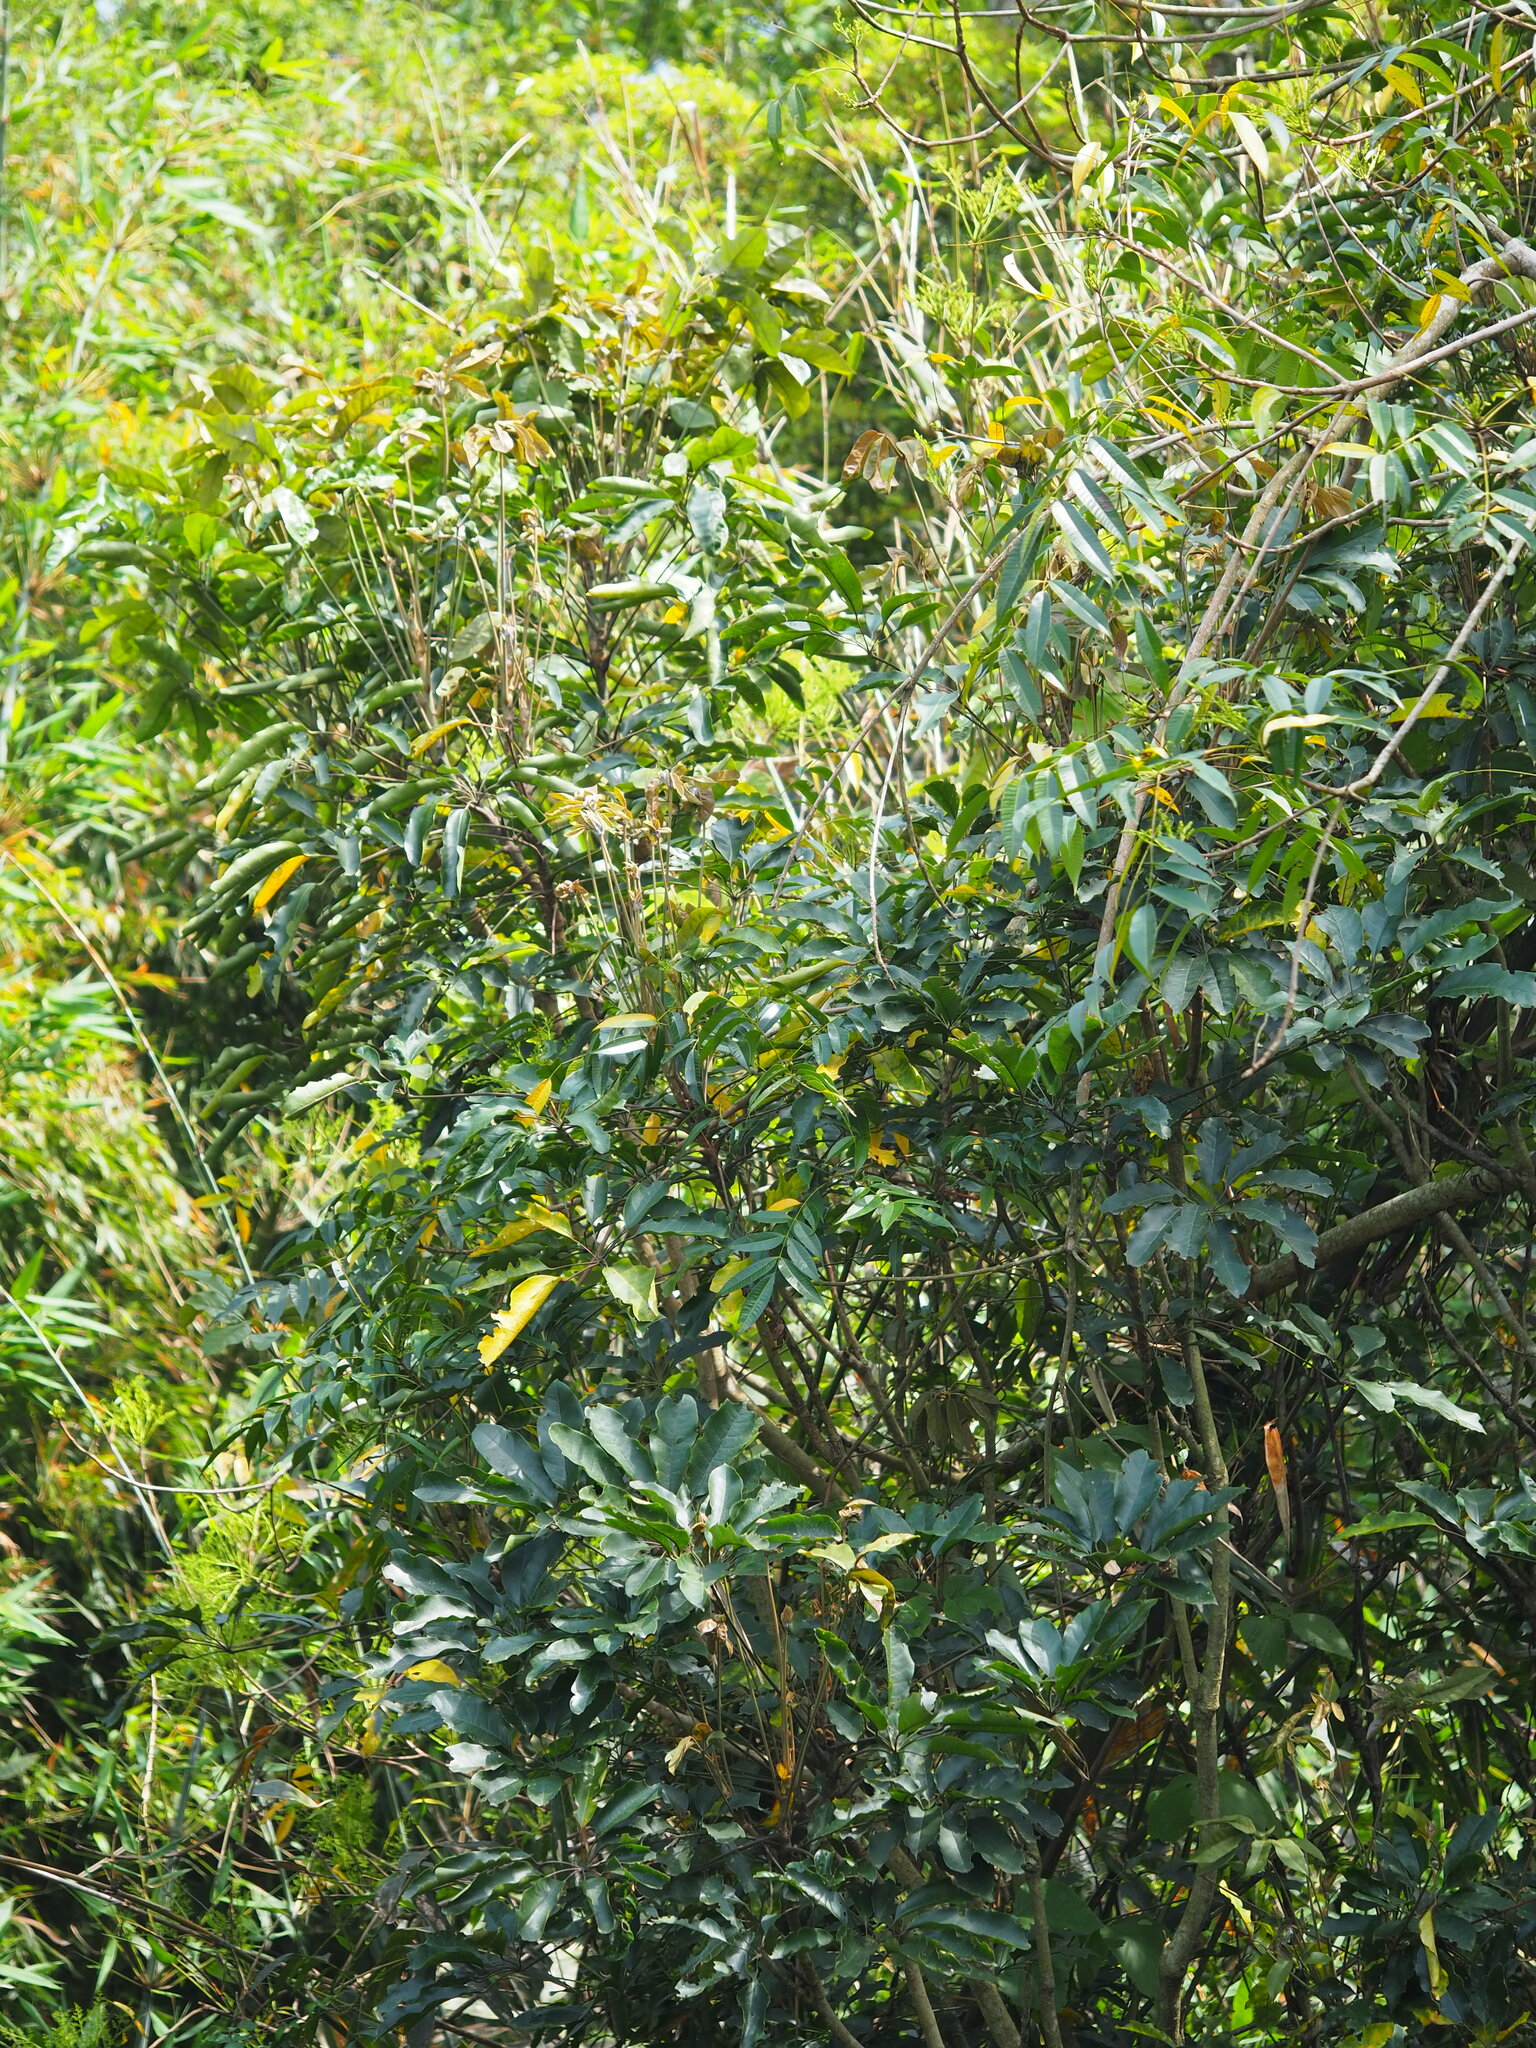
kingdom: Plantae
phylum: Tracheophyta
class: Magnoliopsida
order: Apiales
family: Araliaceae
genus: Heptapleurum
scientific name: Heptapleurum heptaphyllum
